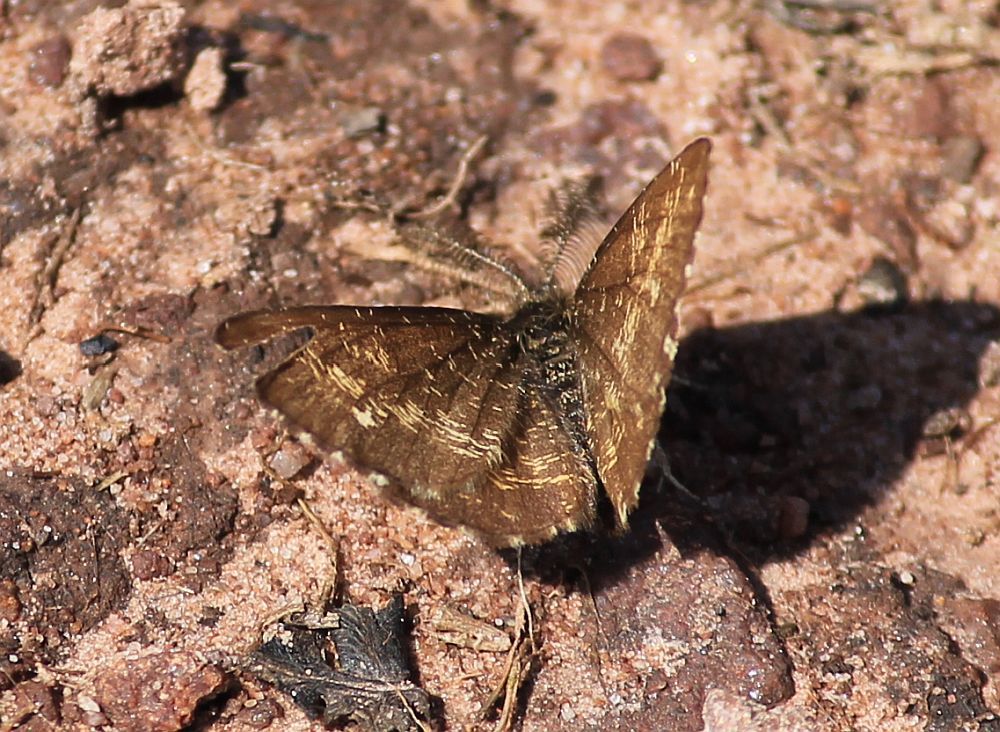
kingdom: Animalia
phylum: Arthropoda
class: Insecta
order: Lepidoptera
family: Geometridae
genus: Ematurga
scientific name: Ematurga atomaria
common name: Common heath
